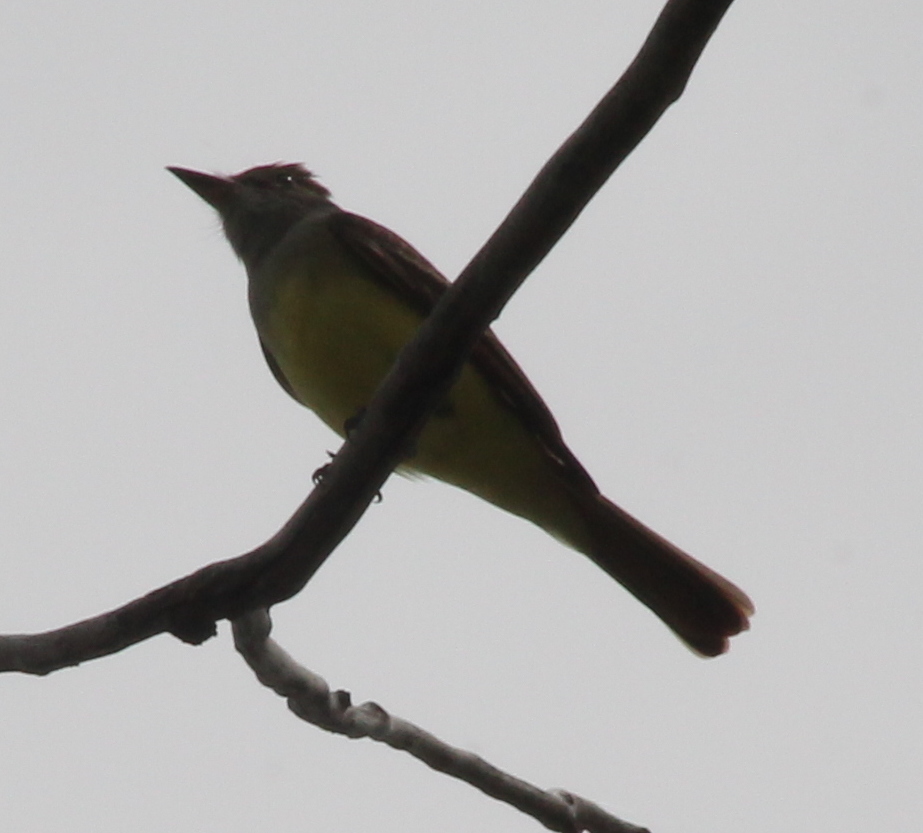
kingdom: Animalia
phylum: Chordata
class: Aves
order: Passeriformes
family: Tyrannidae
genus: Myiarchus
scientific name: Myiarchus crinitus
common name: Great crested flycatcher
